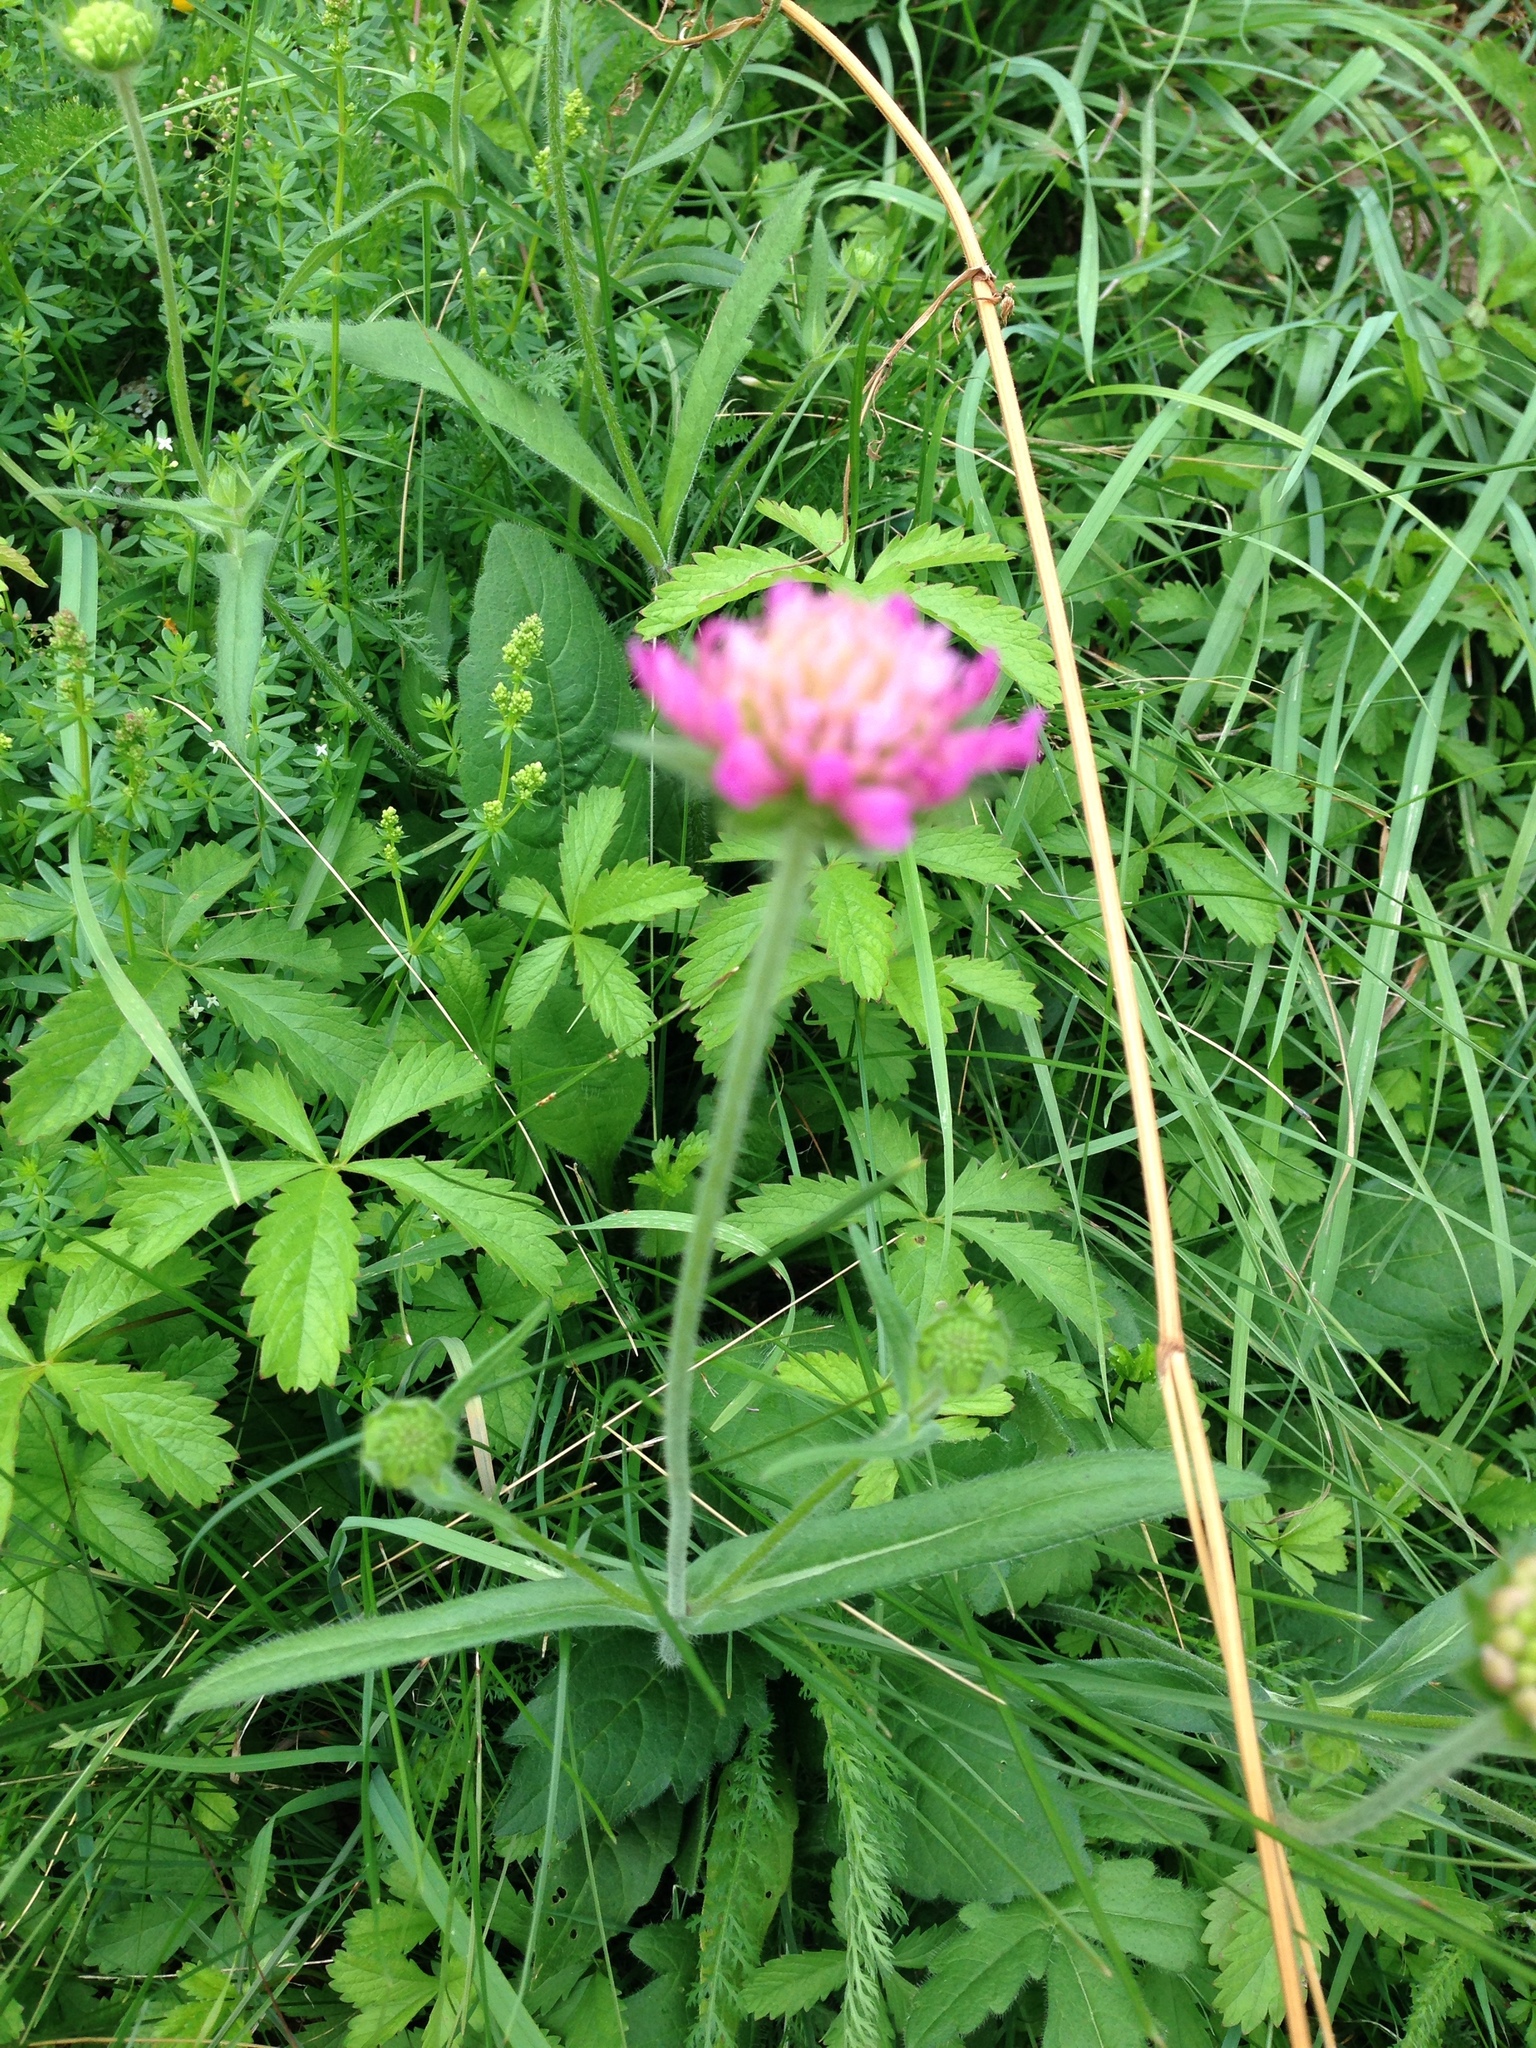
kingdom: Plantae
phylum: Tracheophyta
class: Magnoliopsida
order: Dipsacales
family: Caprifoliaceae
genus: Knautia
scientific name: Knautia arvensis
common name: Field scabiosa
